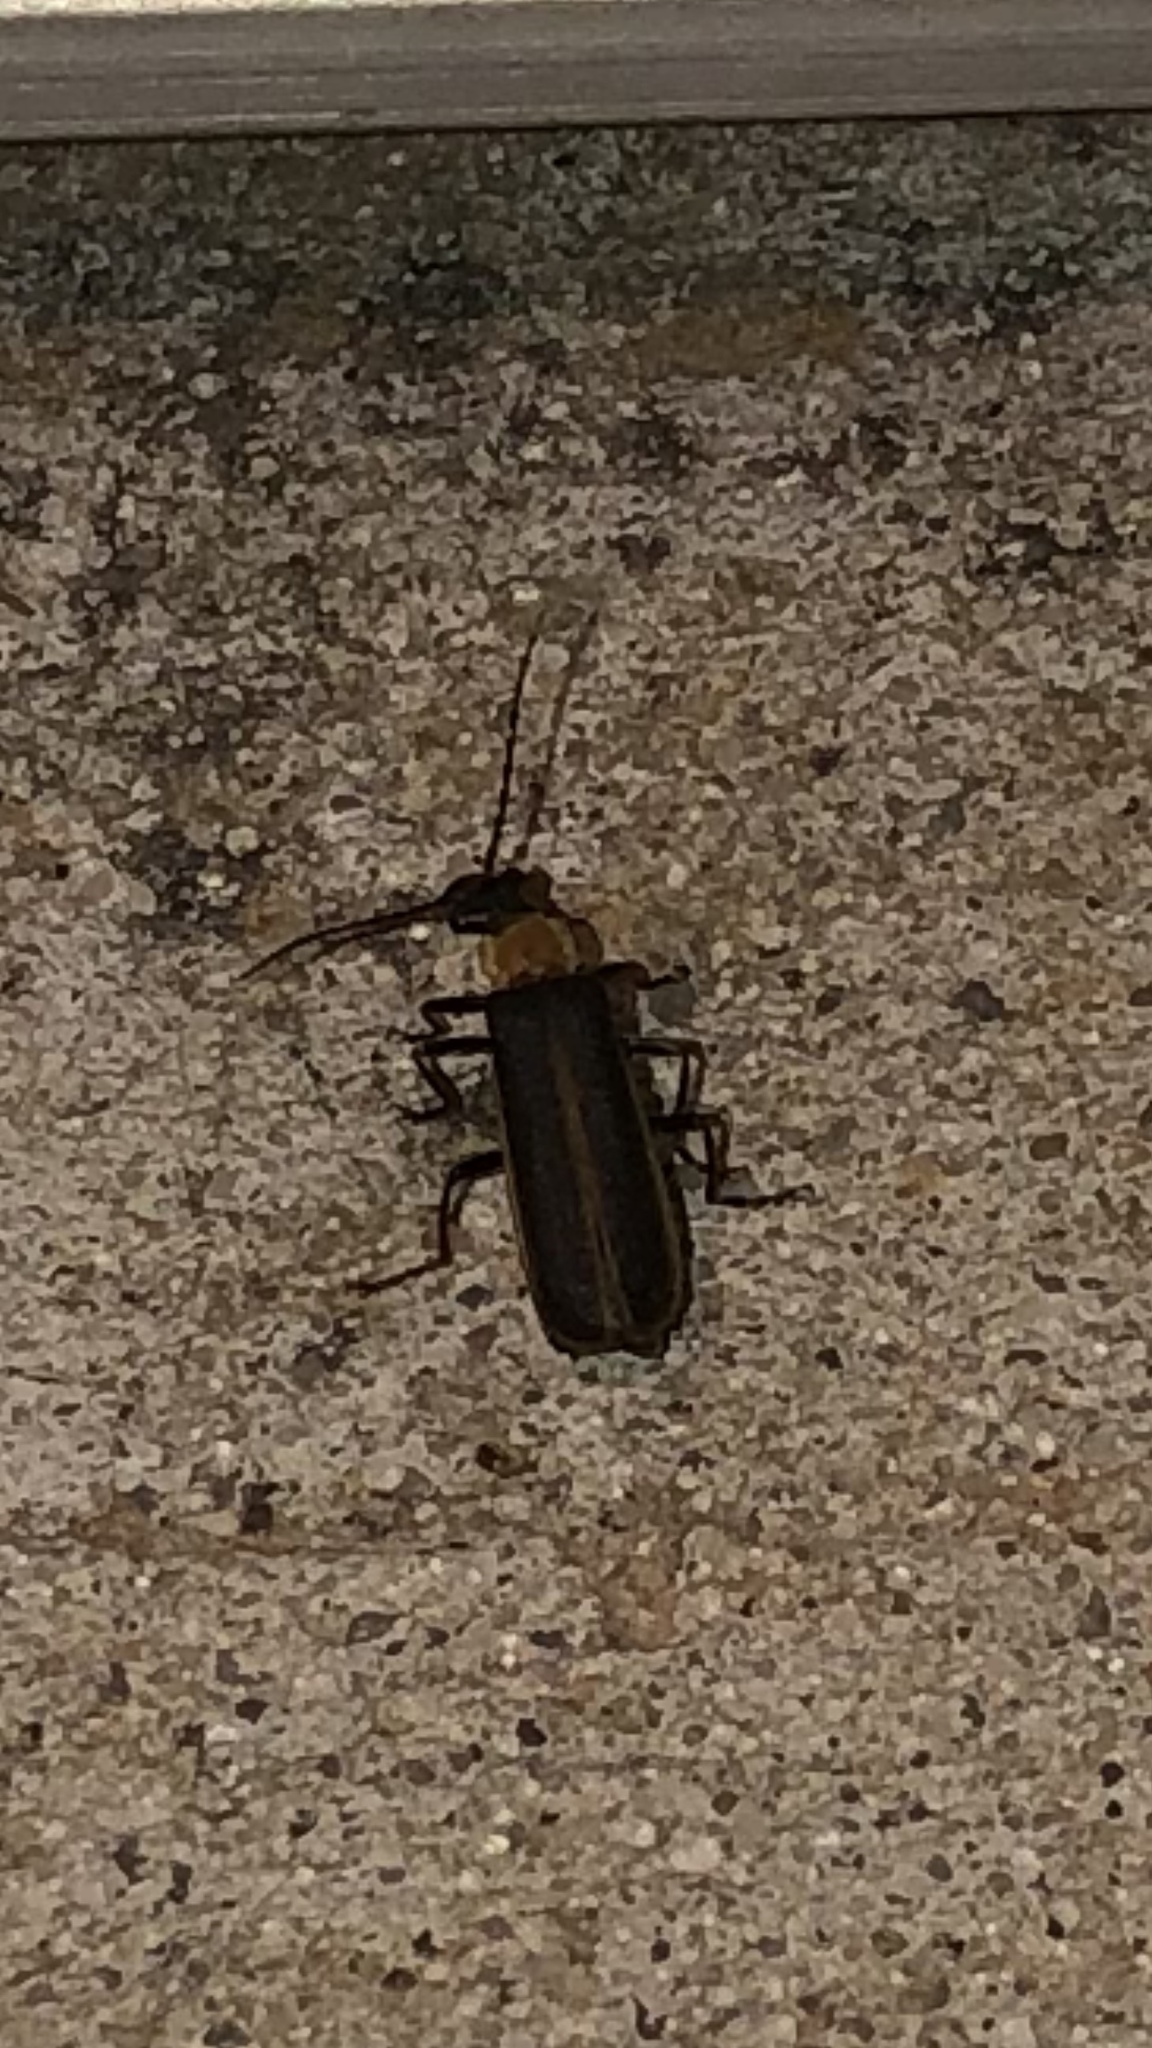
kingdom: Animalia
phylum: Arthropoda
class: Insecta
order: Coleoptera
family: Cantharidae
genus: Podabrus
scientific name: Podabrus flavicollis
